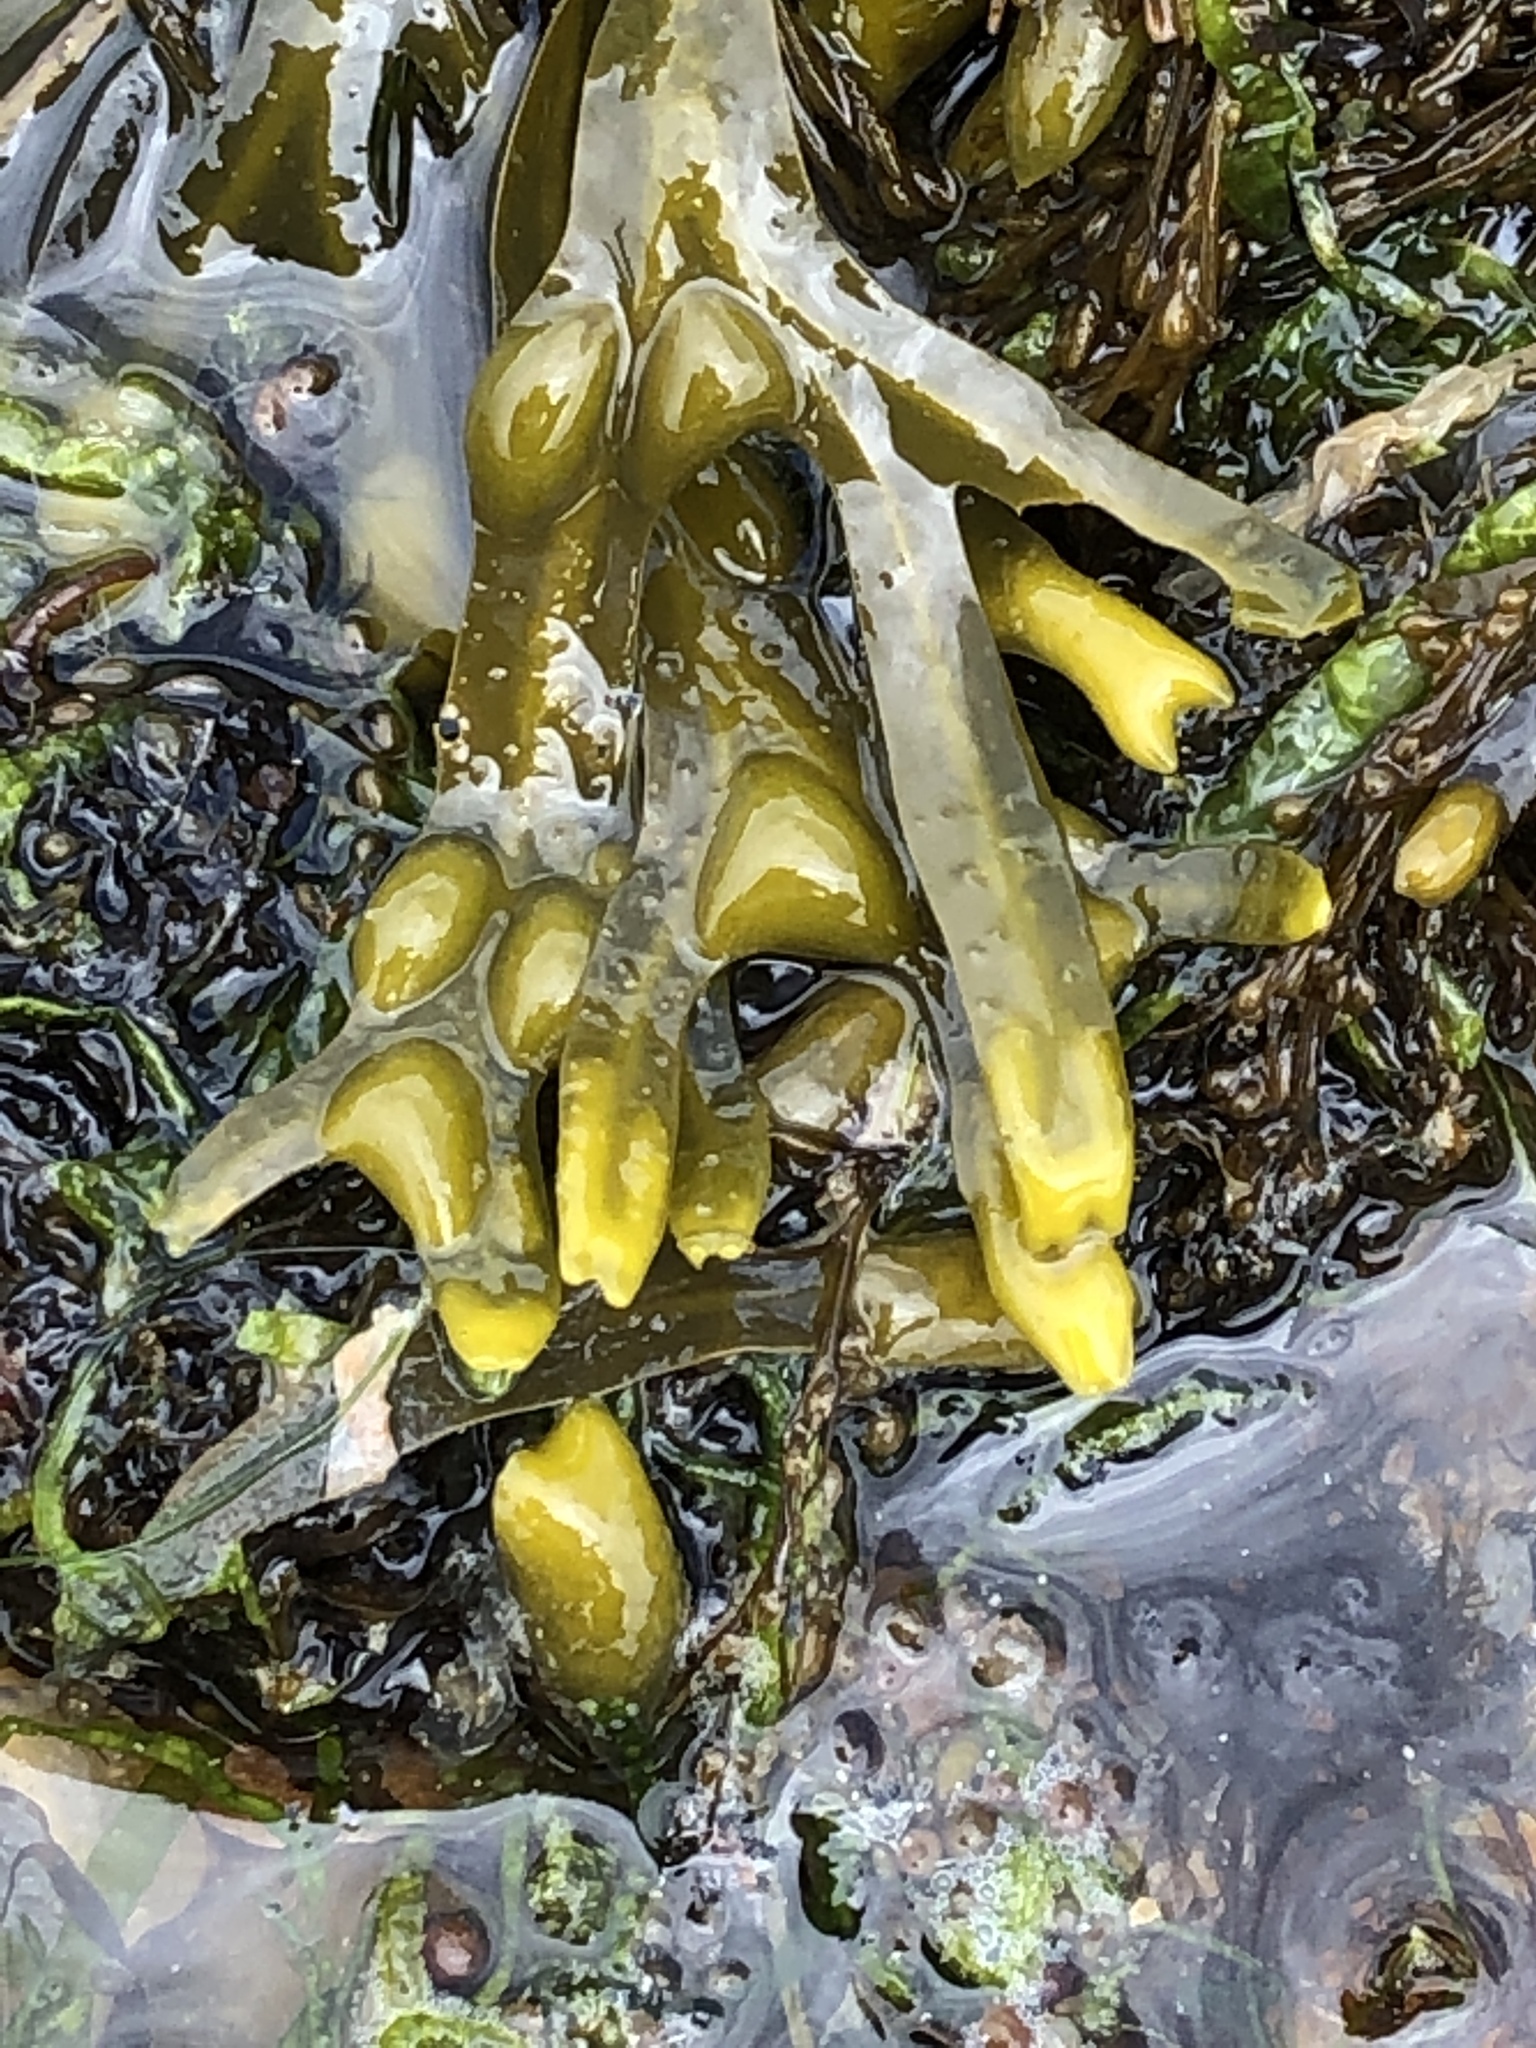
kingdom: Chromista
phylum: Ochrophyta
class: Phaeophyceae
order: Fucales
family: Fucaceae
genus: Fucus
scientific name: Fucus vesiculosus
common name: Bladder wrack
